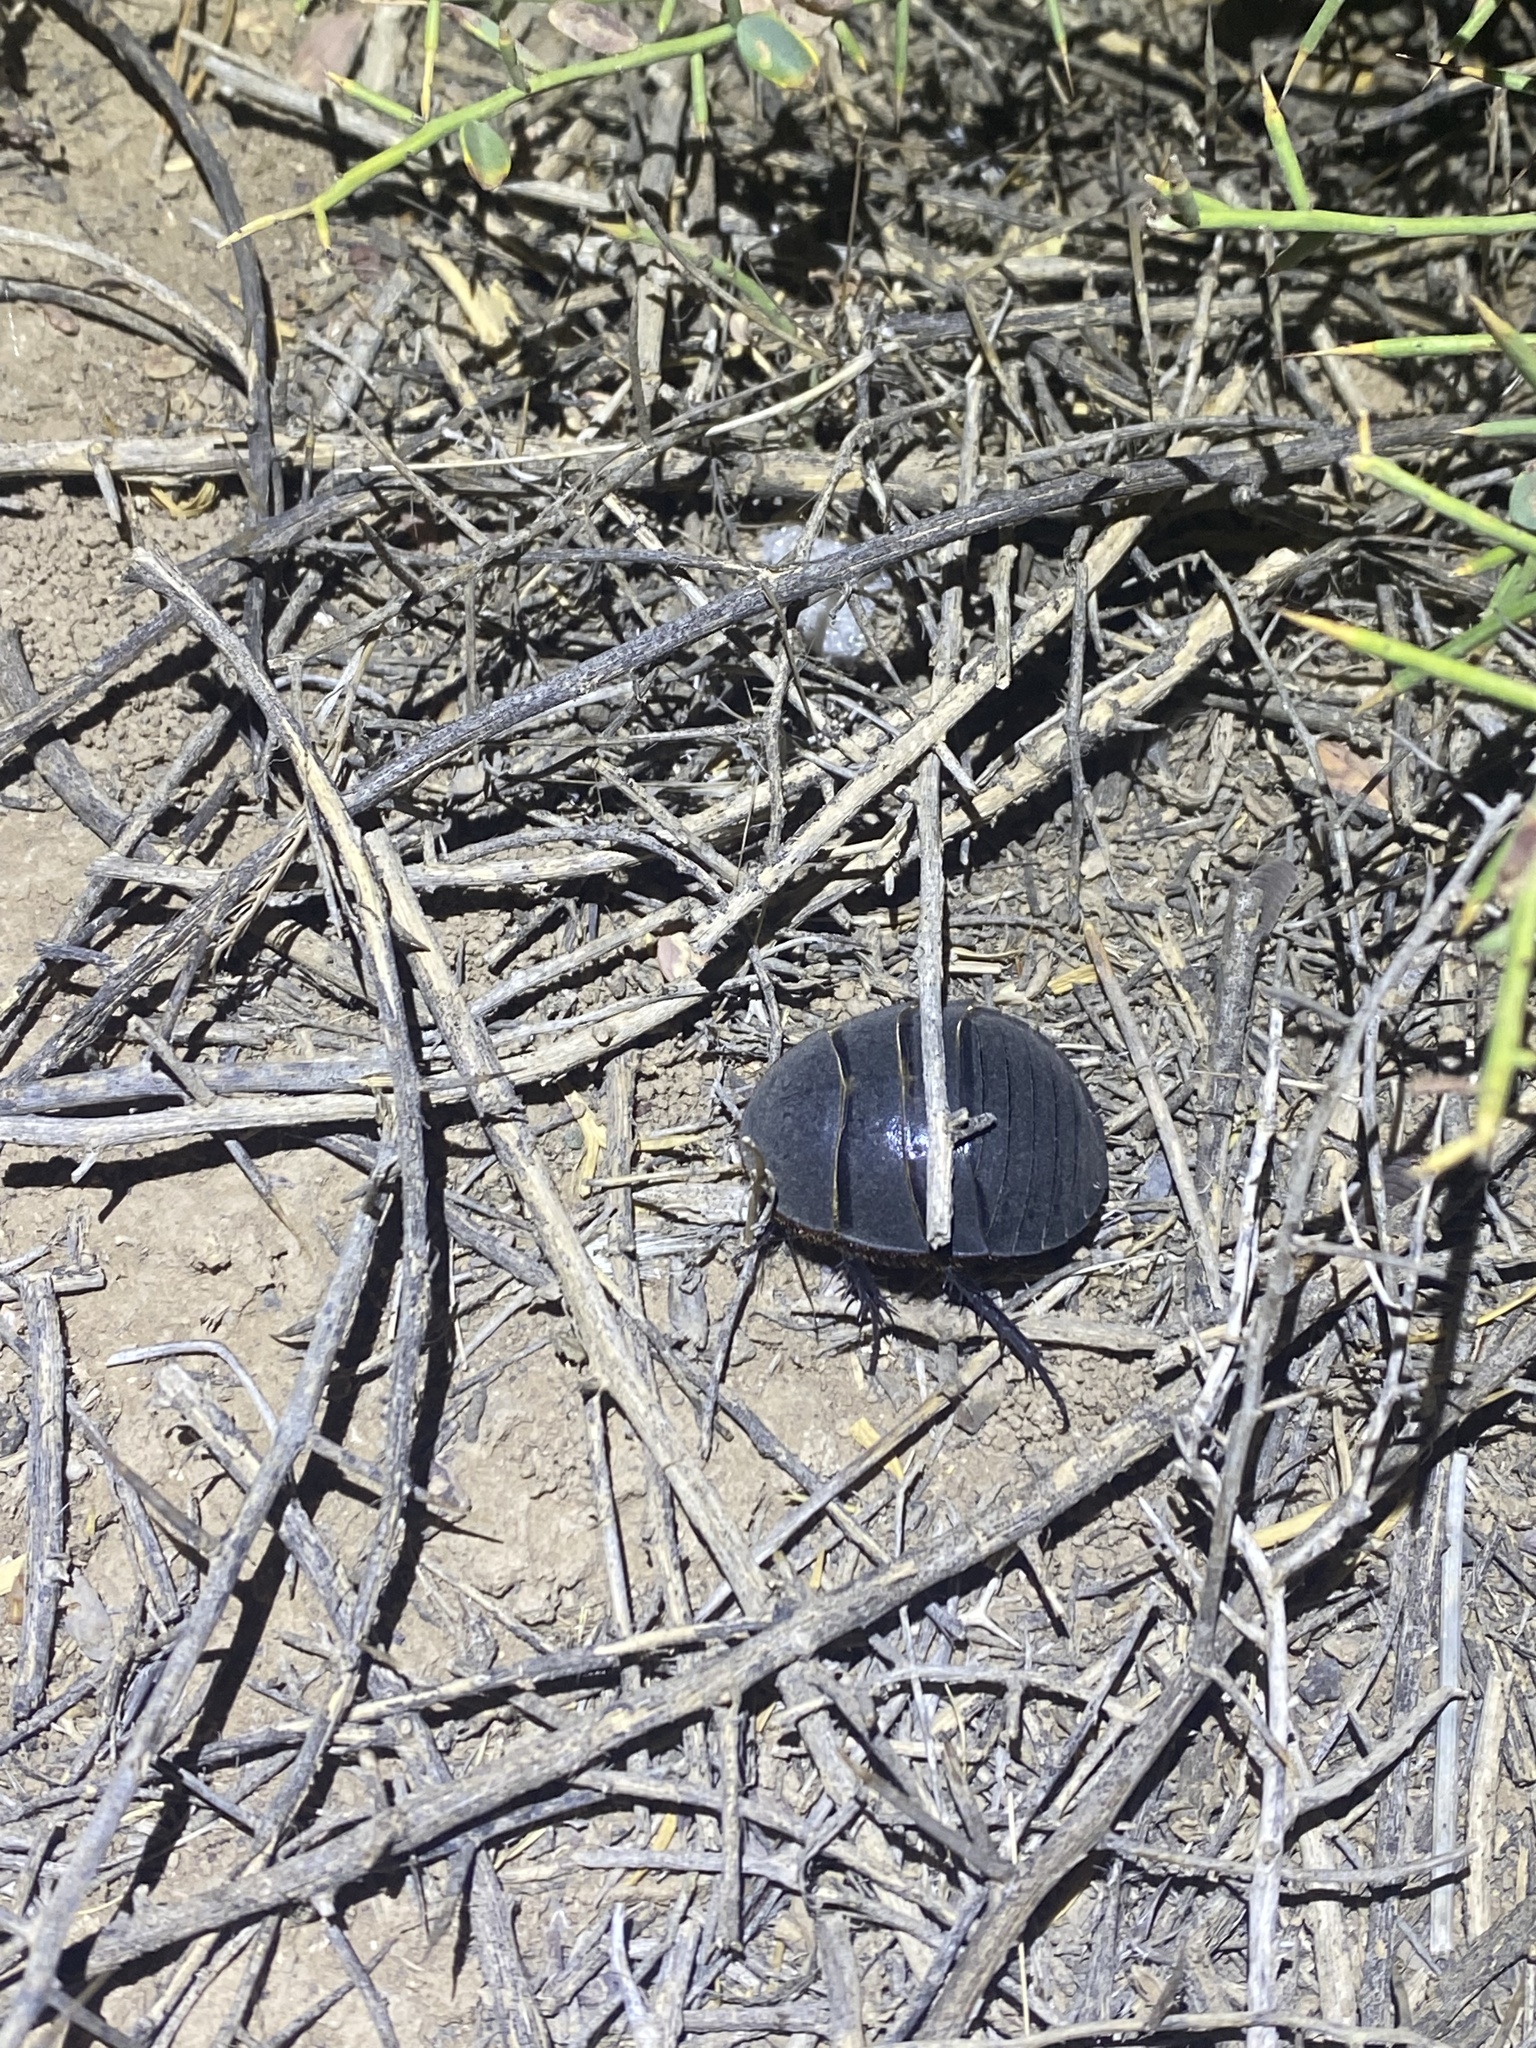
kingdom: Animalia
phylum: Arthropoda
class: Insecta
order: Blattodea
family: Corydiidae
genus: Polyphaga
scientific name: Polyphaga aegyptiaca
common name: Egyptian cockroach
